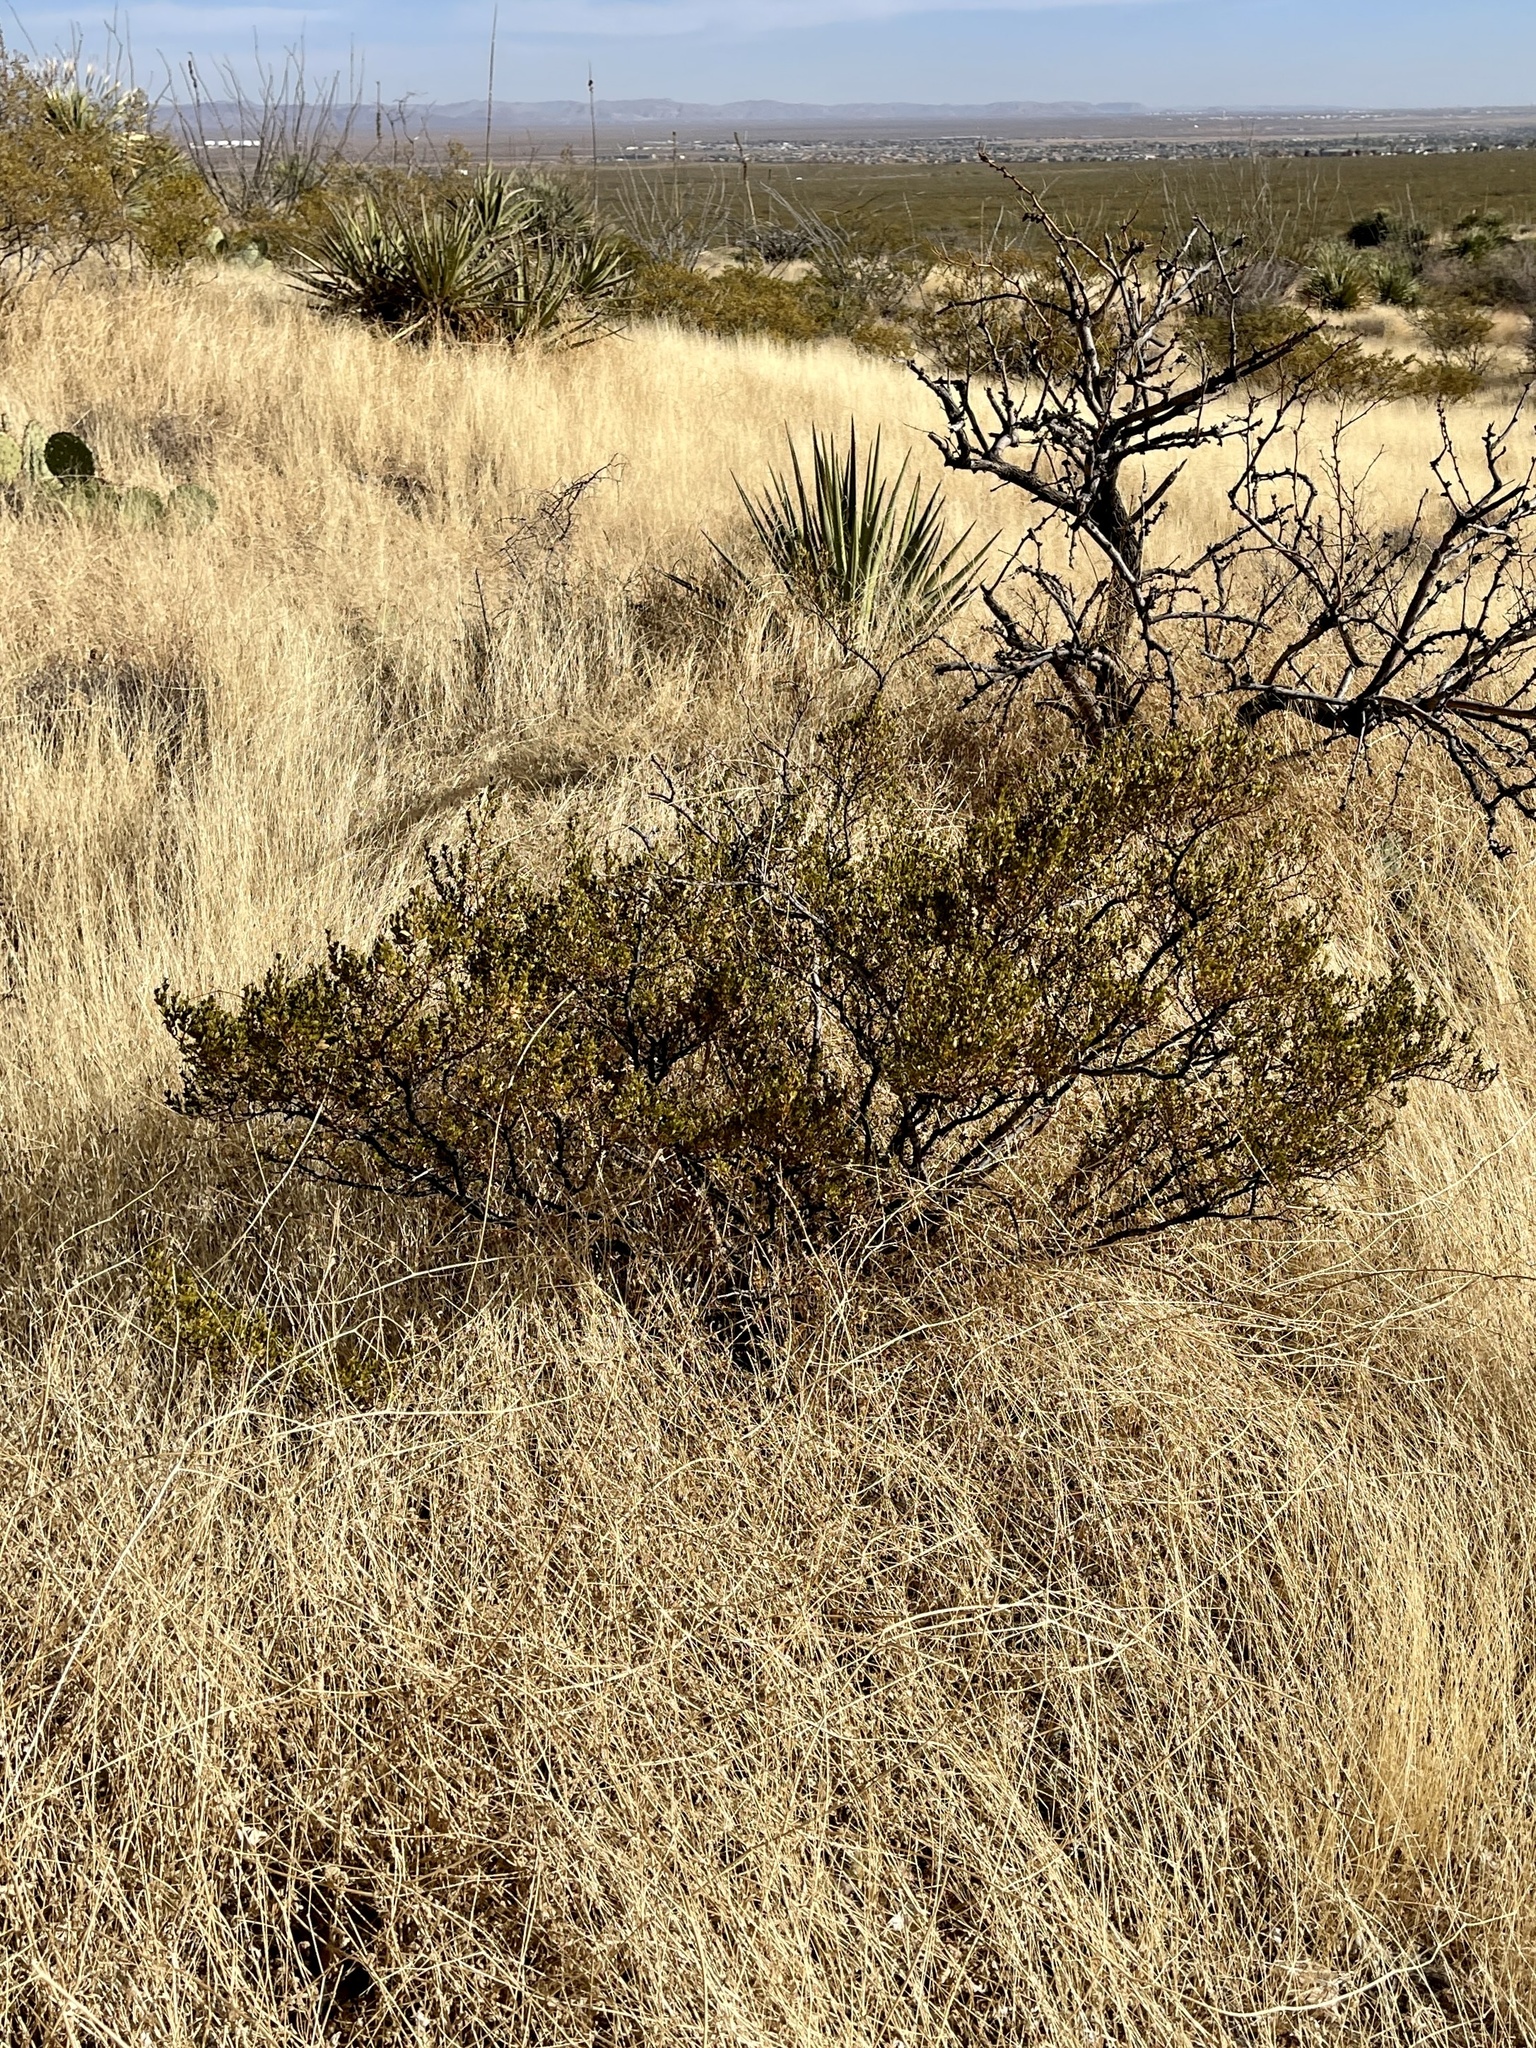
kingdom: Plantae
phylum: Tracheophyta
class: Magnoliopsida
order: Zygophyllales
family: Zygophyllaceae
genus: Larrea
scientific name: Larrea tridentata
